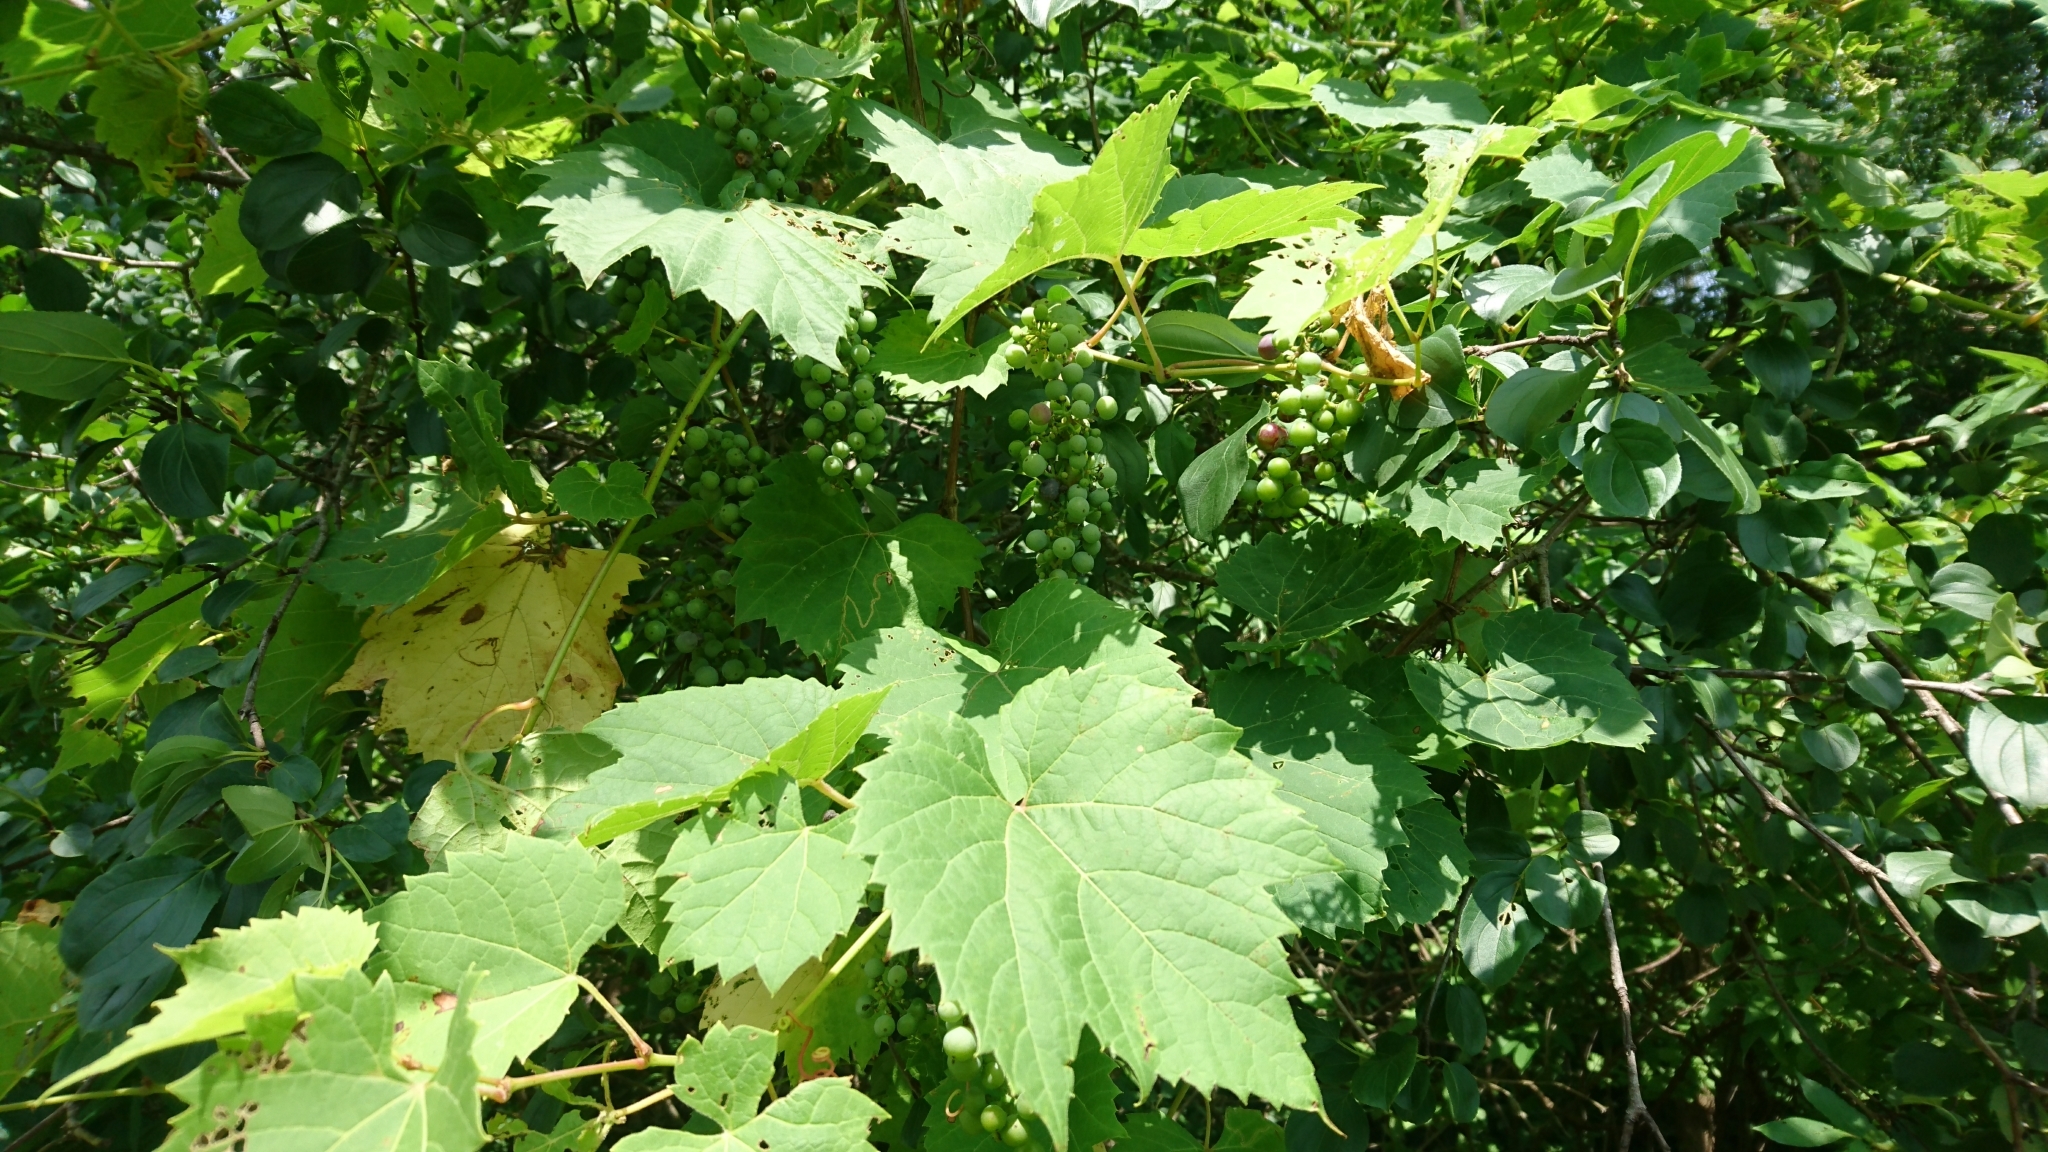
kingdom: Plantae
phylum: Tracheophyta
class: Magnoliopsida
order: Vitales
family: Vitaceae
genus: Vitis
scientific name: Vitis riparia
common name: Frost grape
